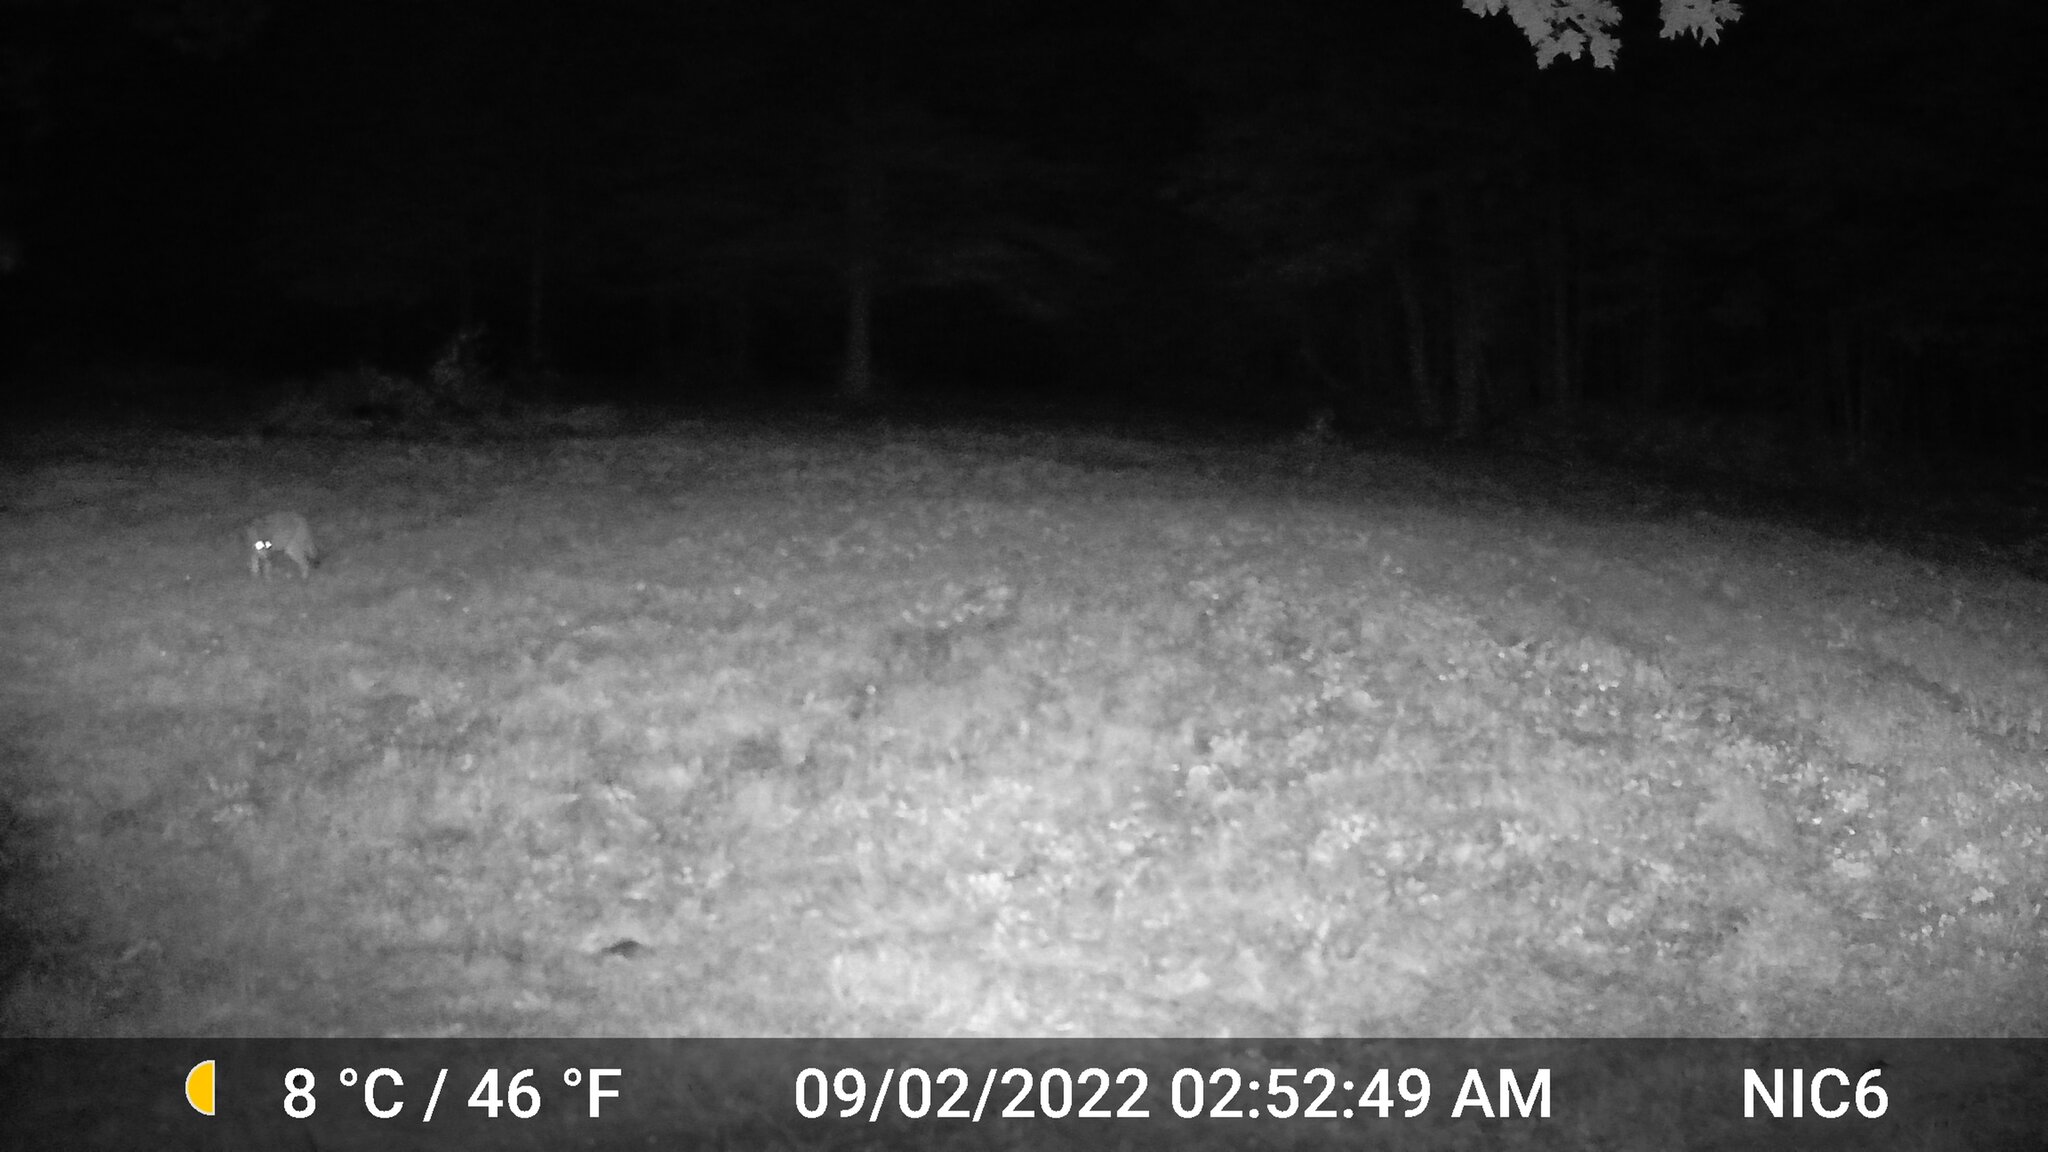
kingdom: Animalia
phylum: Chordata
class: Mammalia
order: Carnivora
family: Canidae
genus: Canis
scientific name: Canis latrans
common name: Coyote
